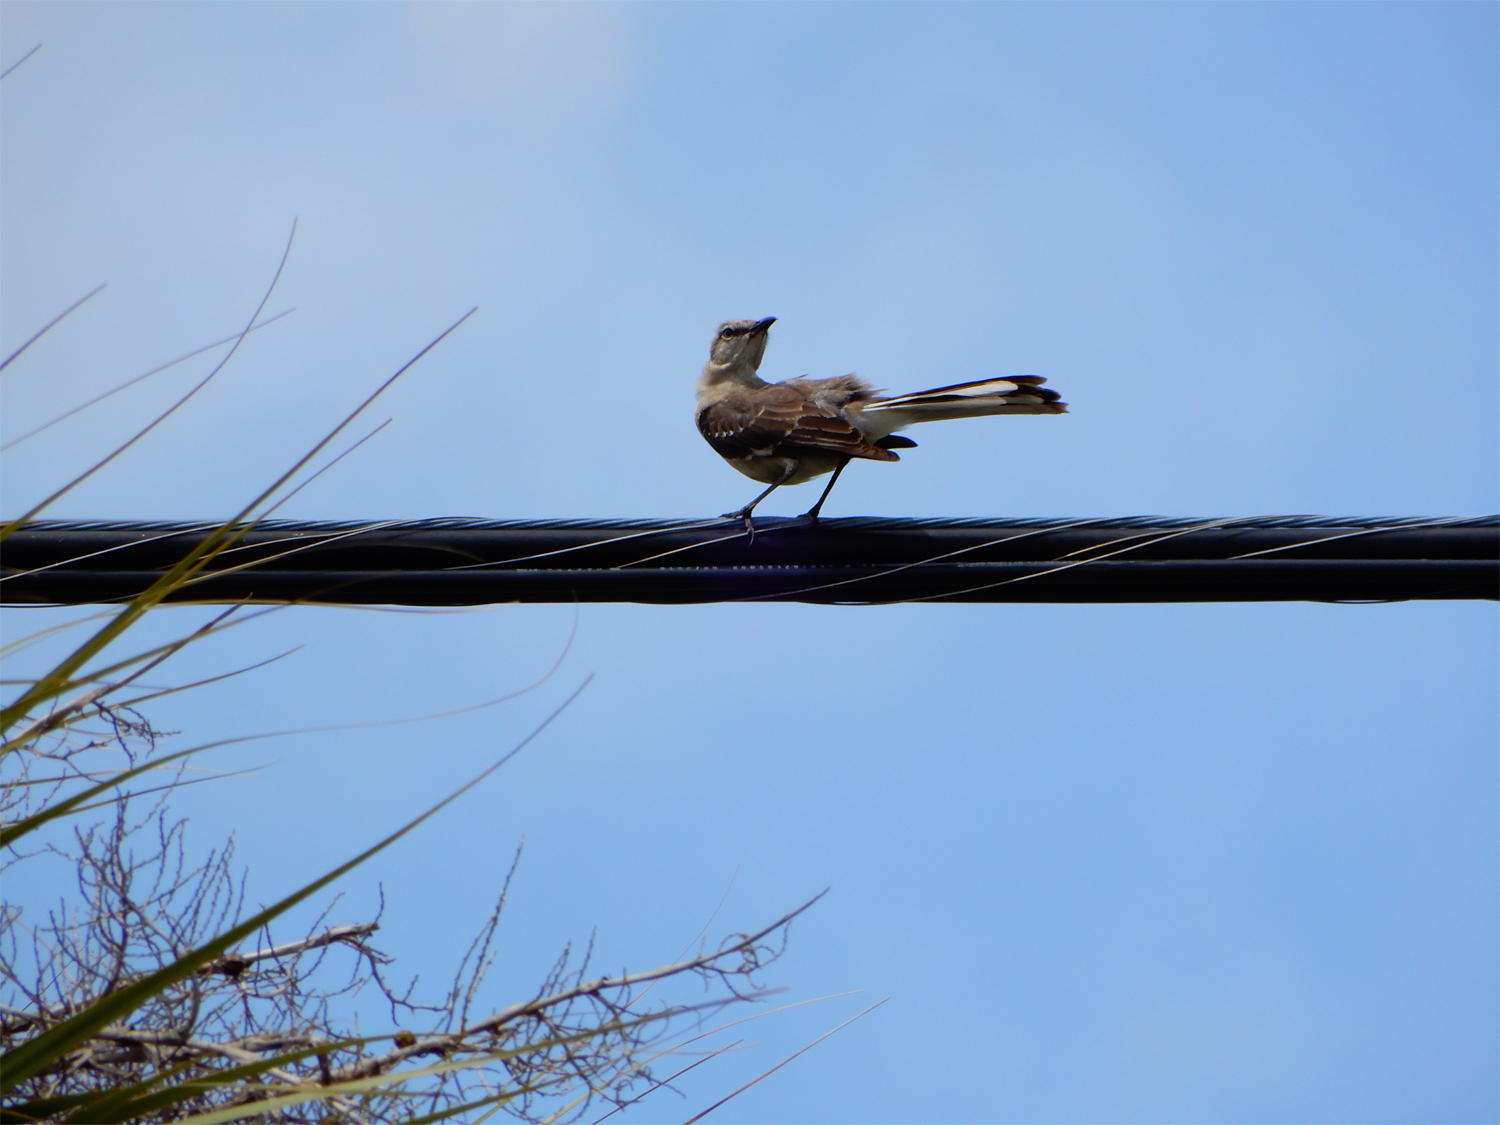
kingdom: Animalia
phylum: Chordata
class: Aves
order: Passeriformes
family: Mimidae
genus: Mimus
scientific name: Mimus polyglottos
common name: Northern mockingbird
